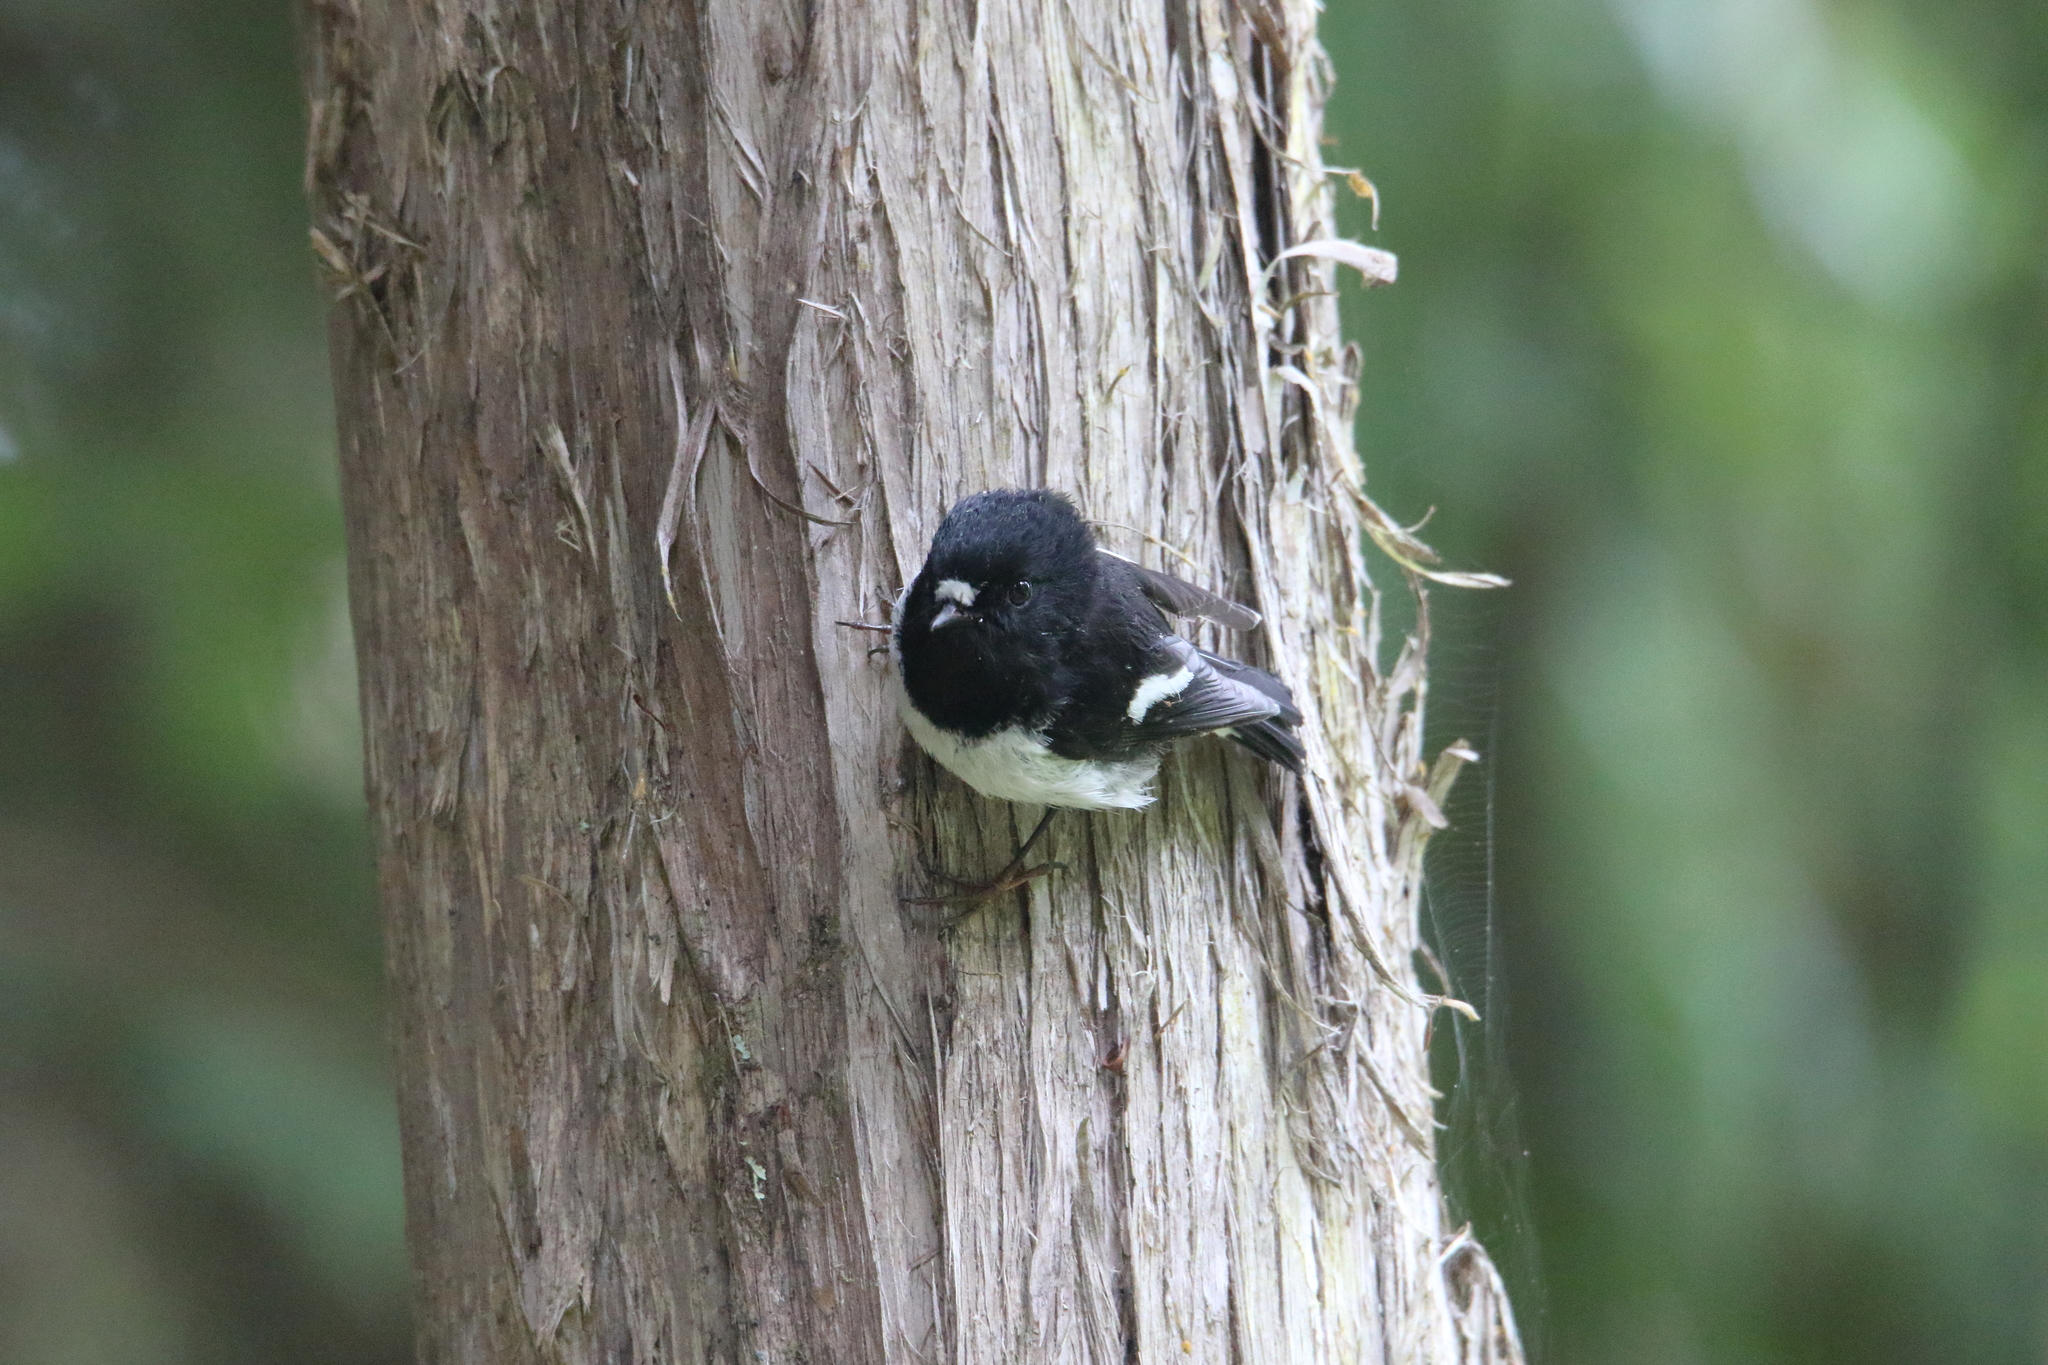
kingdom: Animalia
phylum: Chordata
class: Aves
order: Passeriformes
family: Petroicidae
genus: Petroica
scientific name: Petroica macrocephala
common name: Tomtit
